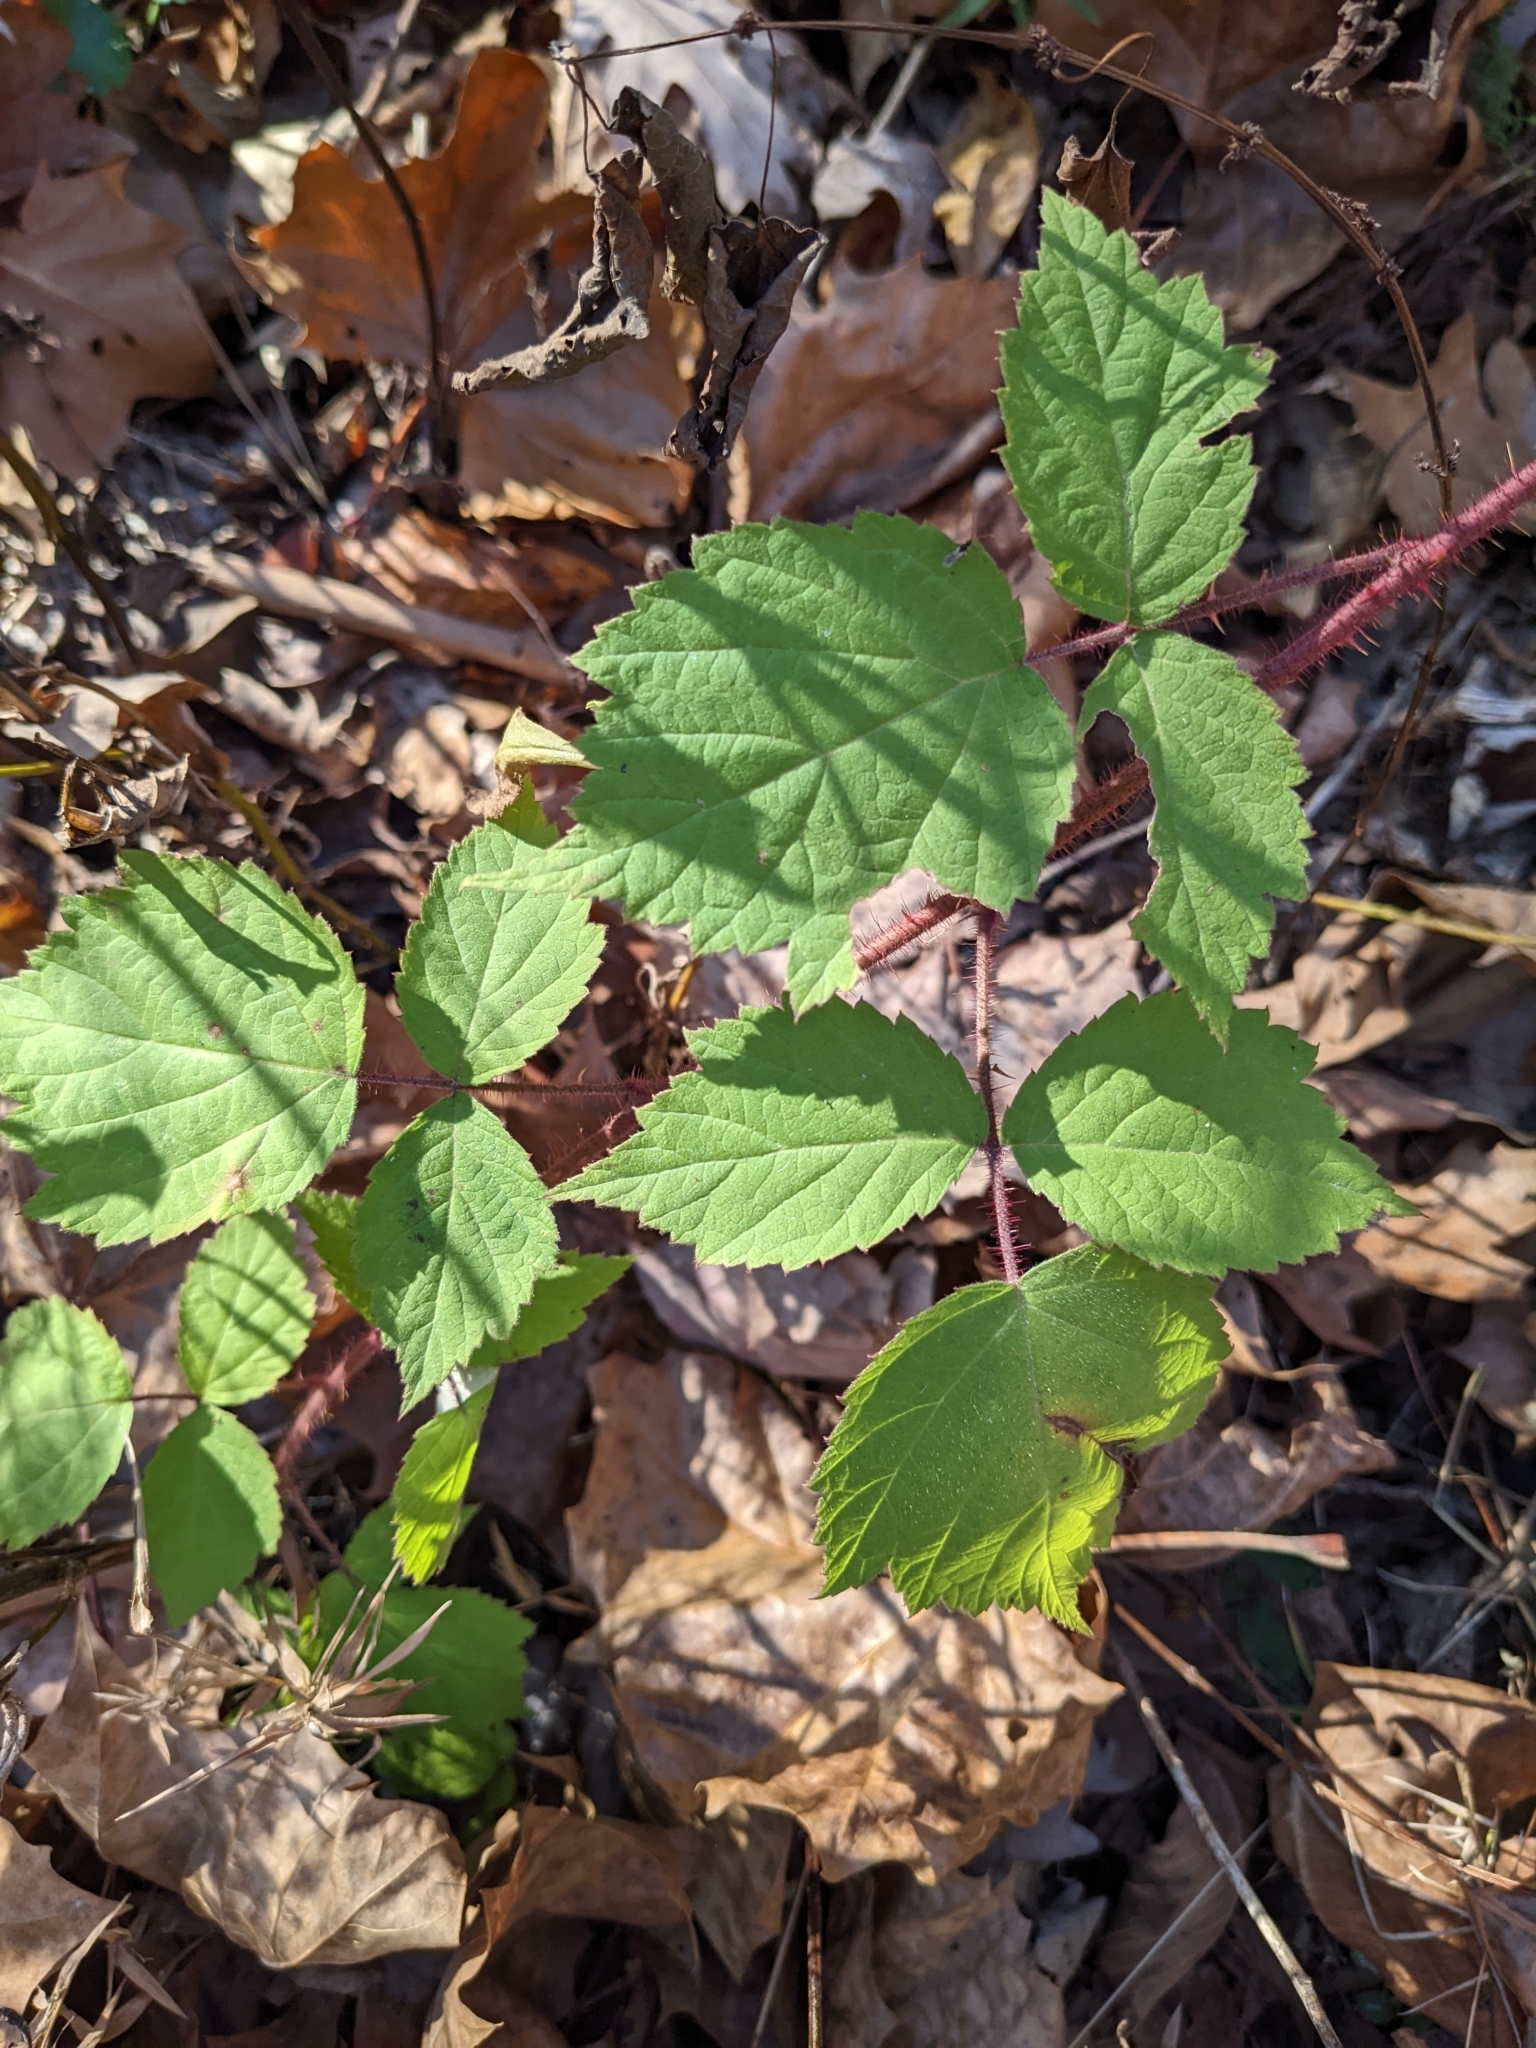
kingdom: Plantae
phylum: Tracheophyta
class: Magnoliopsida
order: Rosales
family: Rosaceae
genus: Rubus
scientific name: Rubus phoenicolasius
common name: Japanese wineberry
